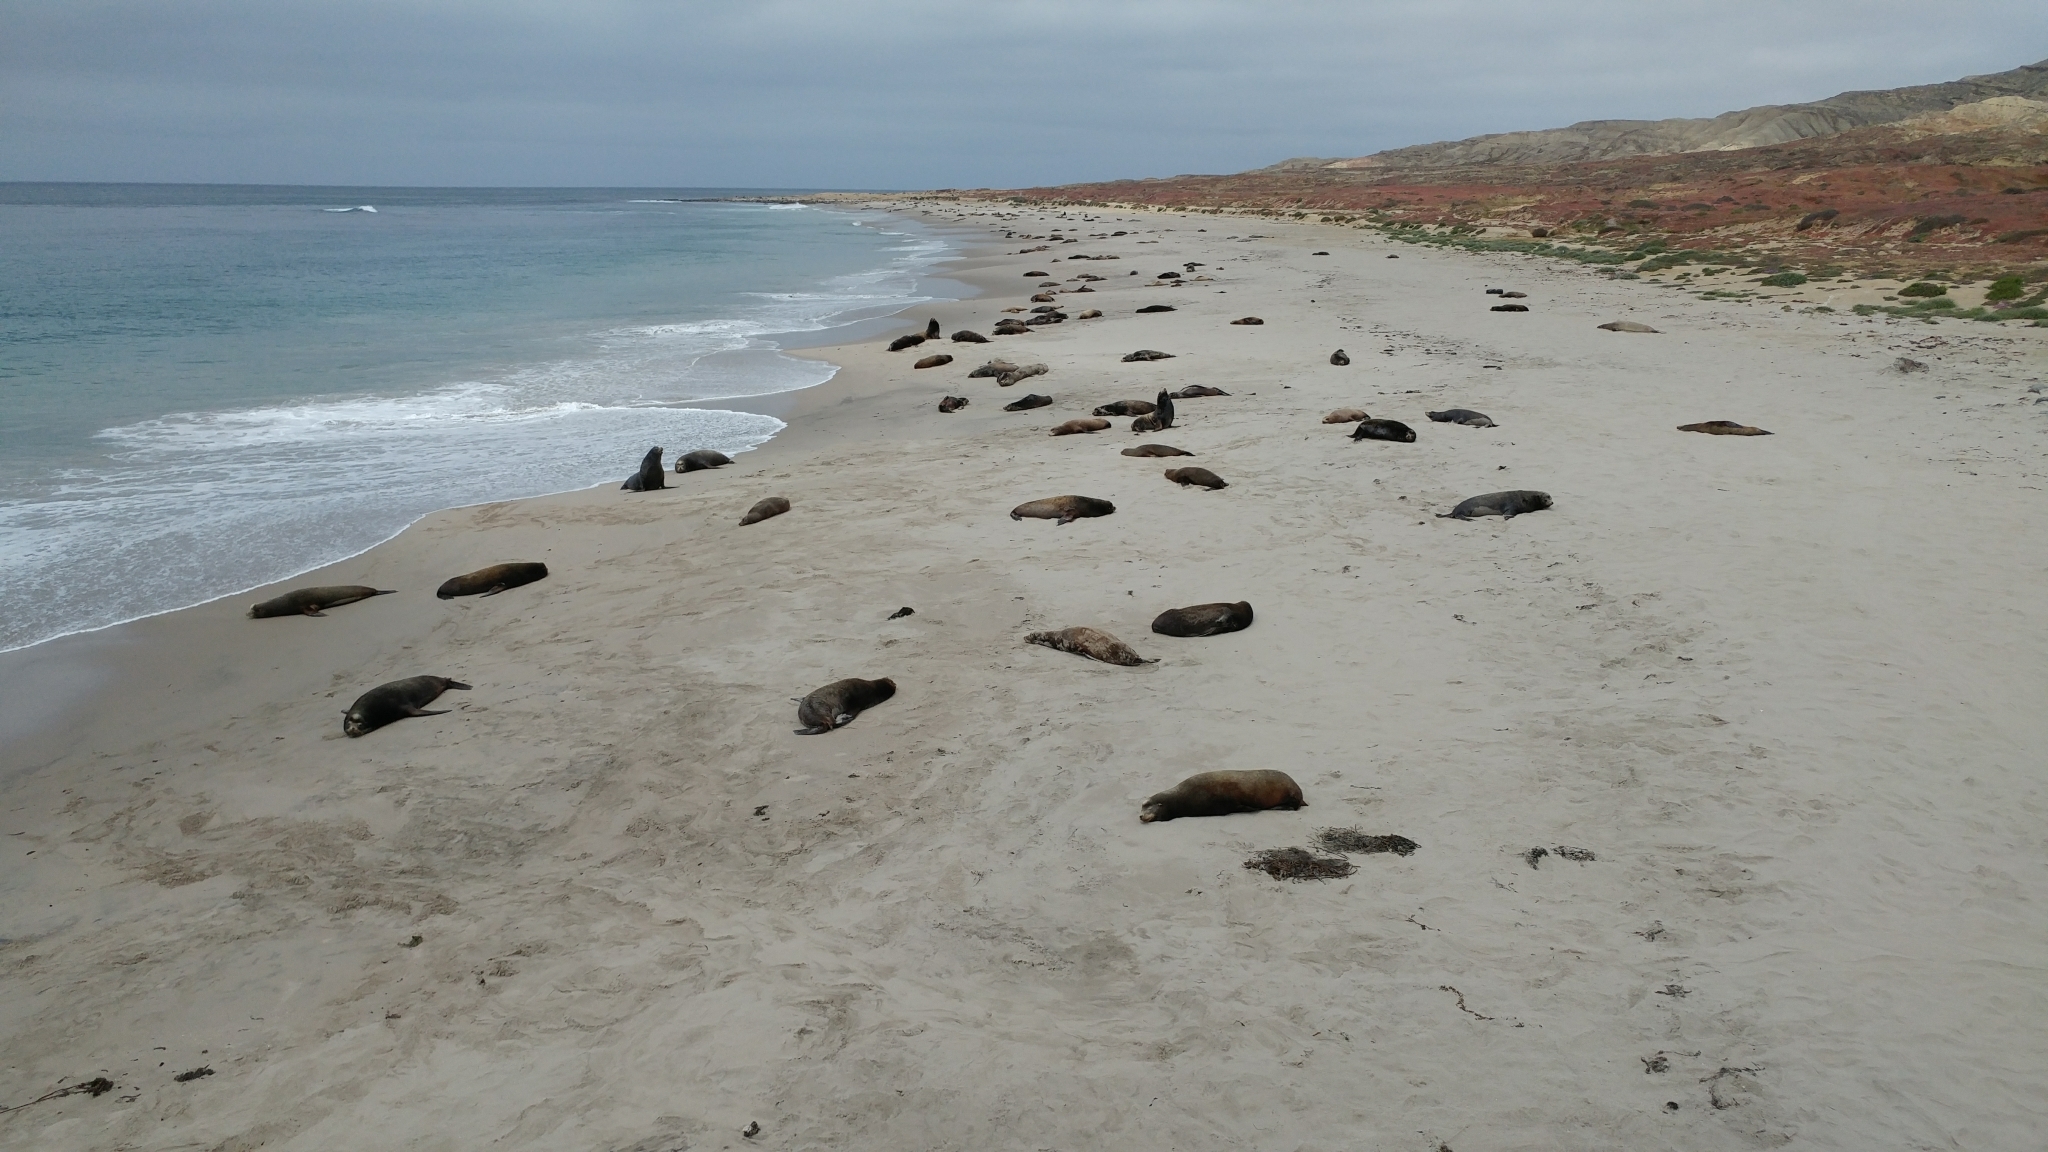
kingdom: Animalia
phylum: Chordata
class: Mammalia
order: Carnivora
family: Otariidae
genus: Zalophus
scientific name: Zalophus californianus
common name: California sea lion
